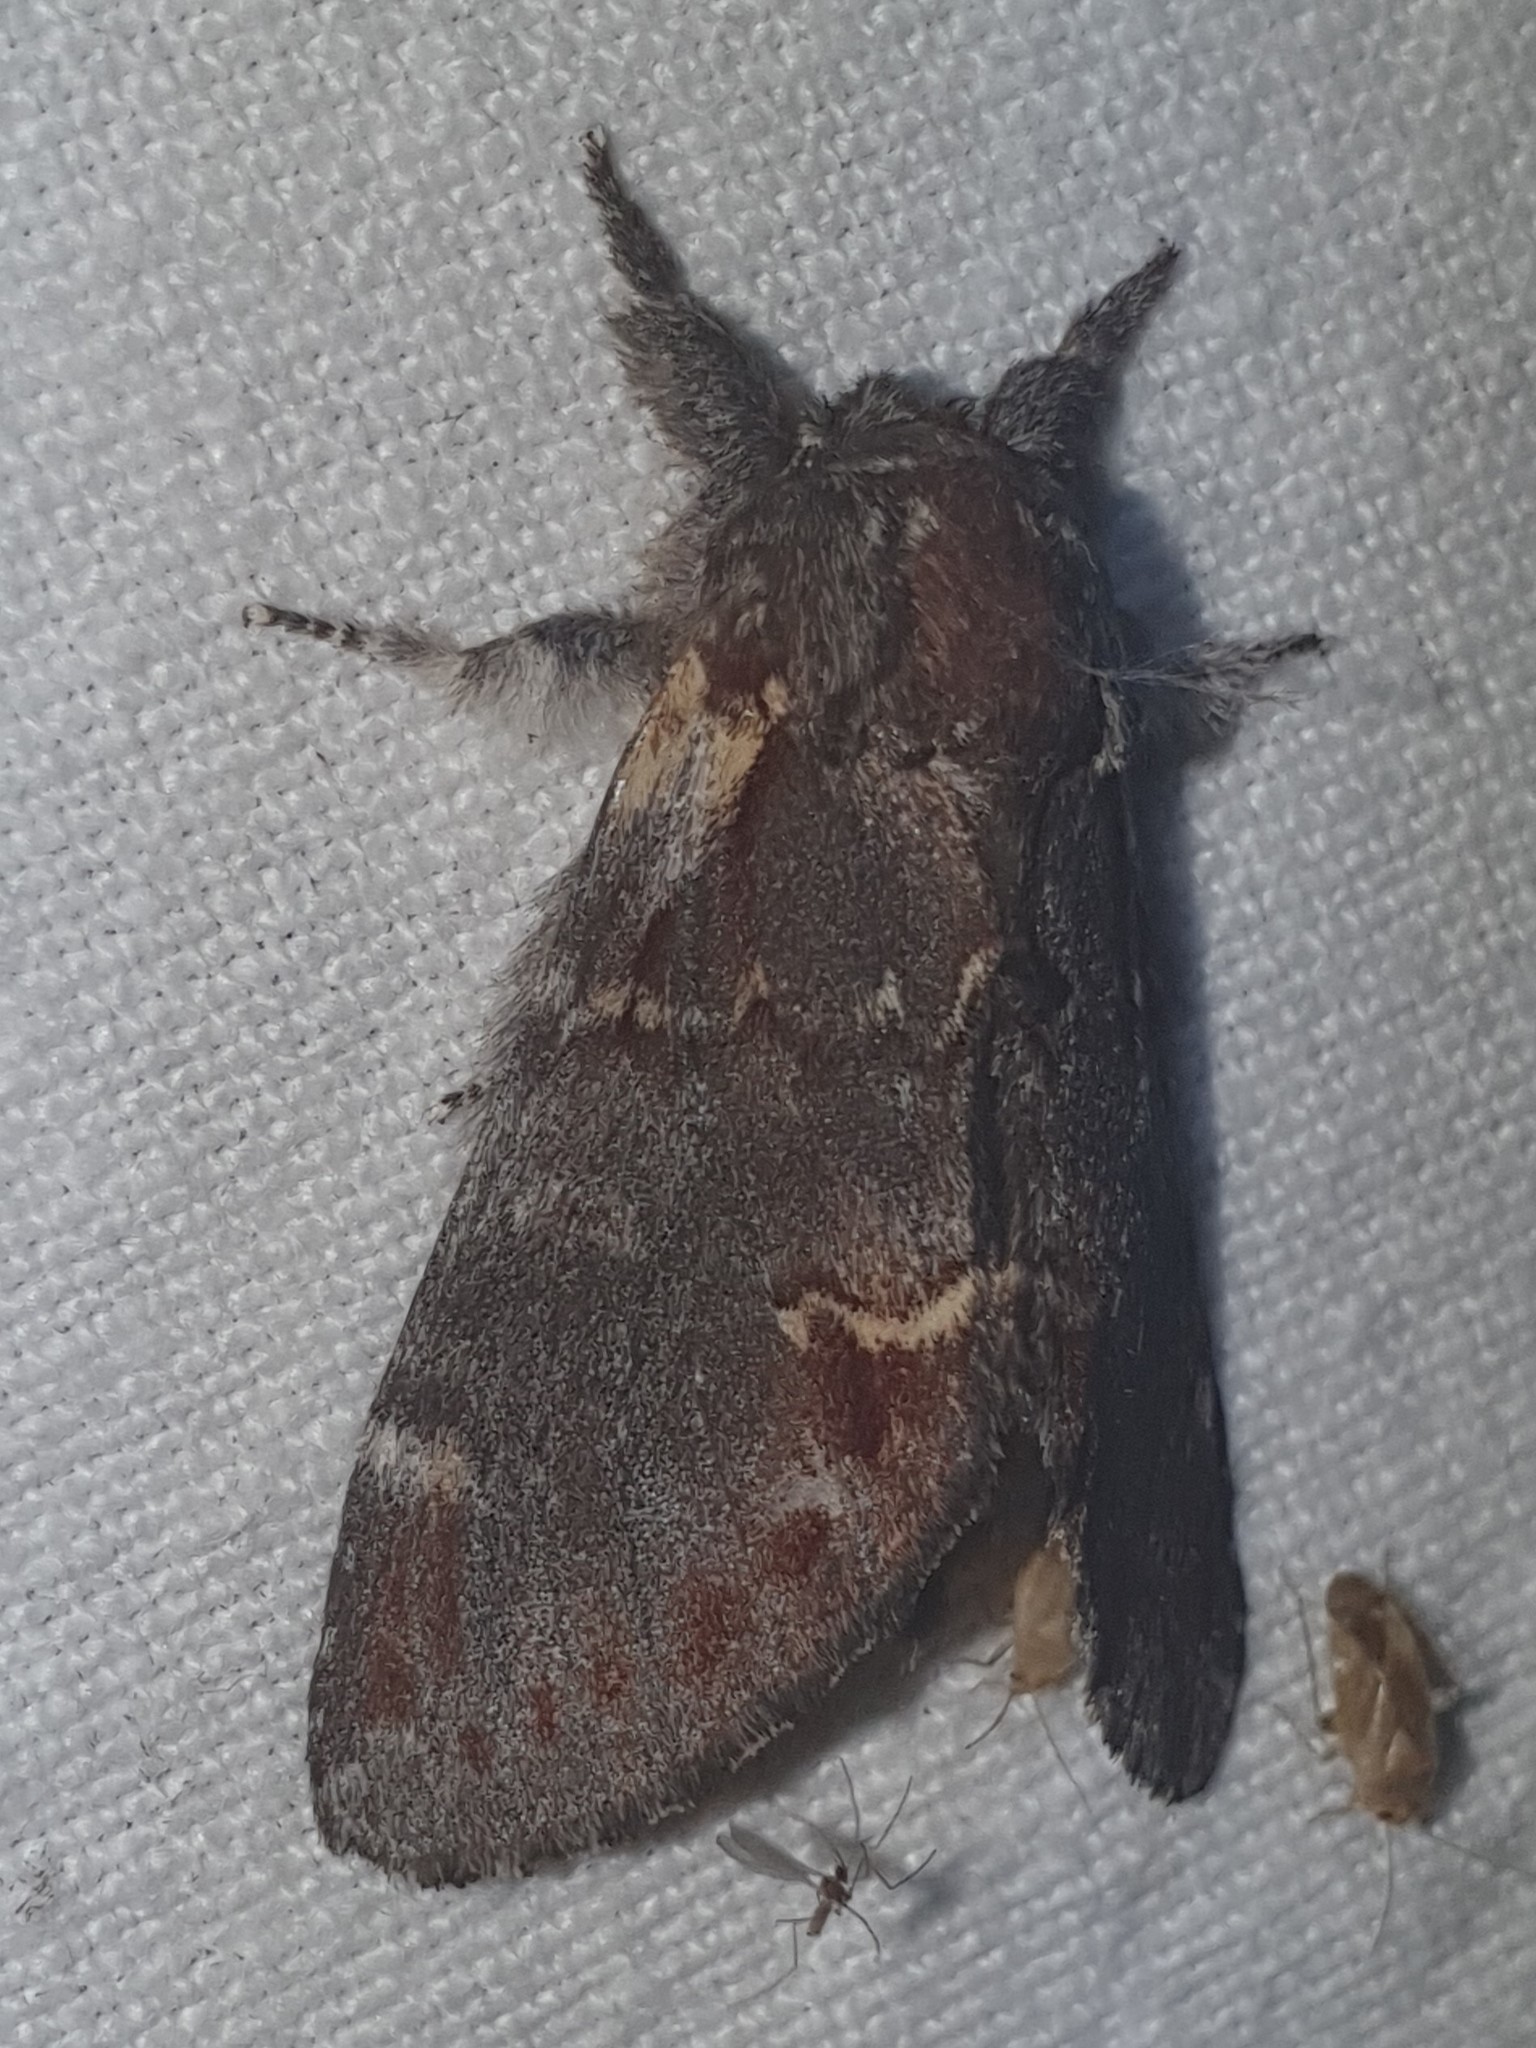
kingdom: Animalia
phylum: Arthropoda
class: Insecta
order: Lepidoptera
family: Notodontidae
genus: Notodonta
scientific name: Notodonta dromedarius
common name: Iron prominent
